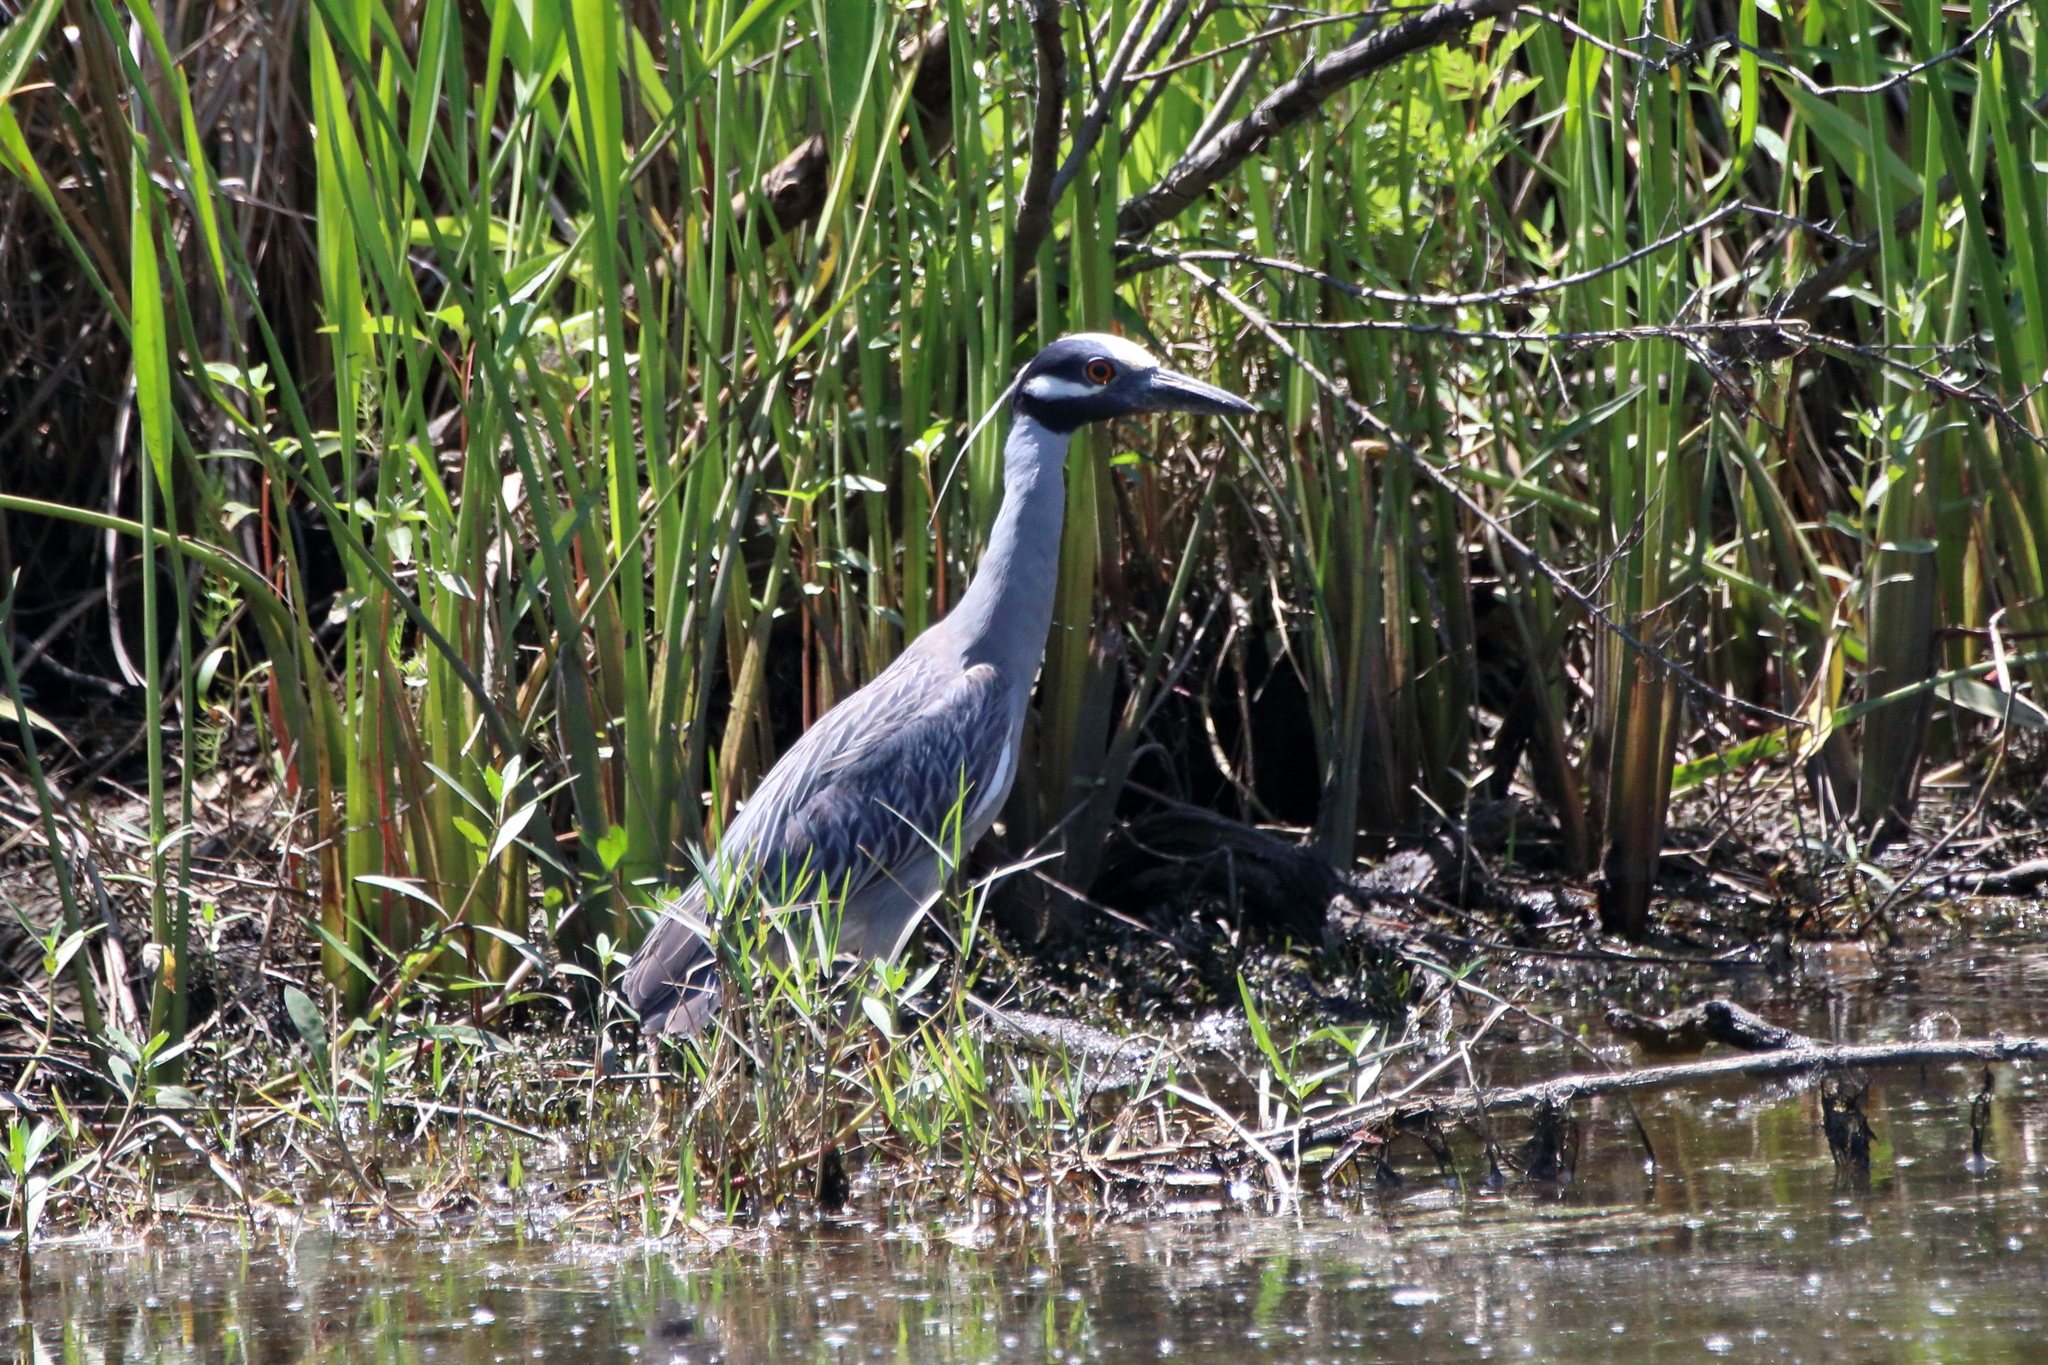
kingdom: Animalia
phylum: Chordata
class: Aves
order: Pelecaniformes
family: Ardeidae
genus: Nyctanassa
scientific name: Nyctanassa violacea
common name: Yellow-crowned night heron
